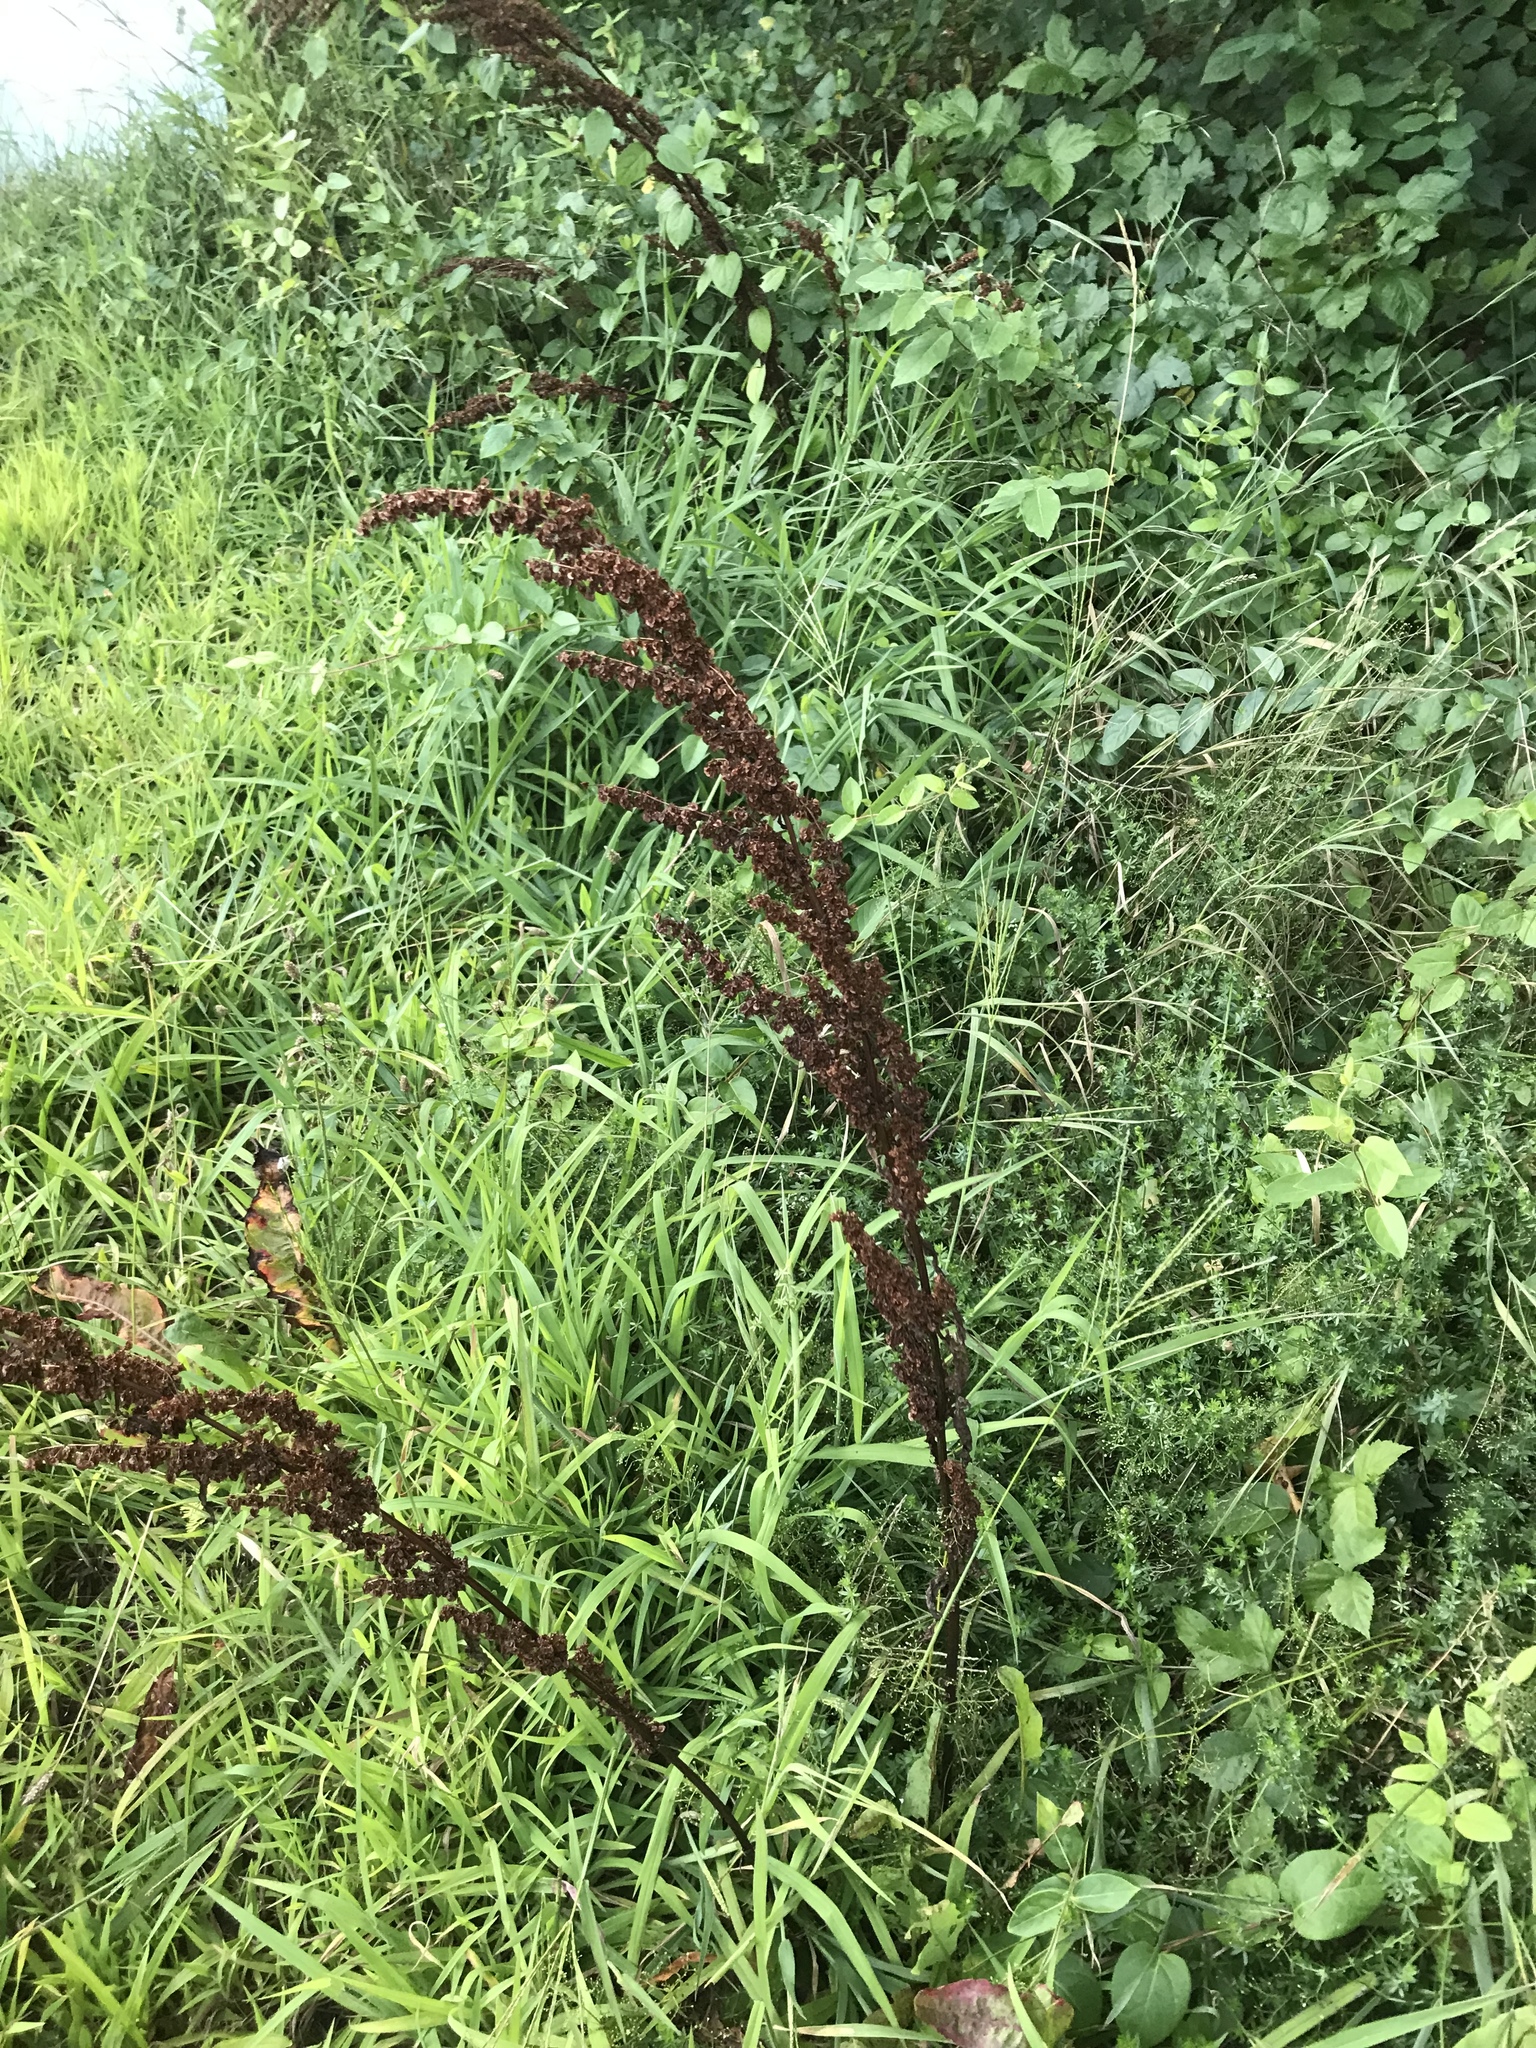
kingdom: Plantae
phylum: Tracheophyta
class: Magnoliopsida
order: Caryophyllales
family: Polygonaceae
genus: Rumex
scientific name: Rumex crispus
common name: Curled dock
